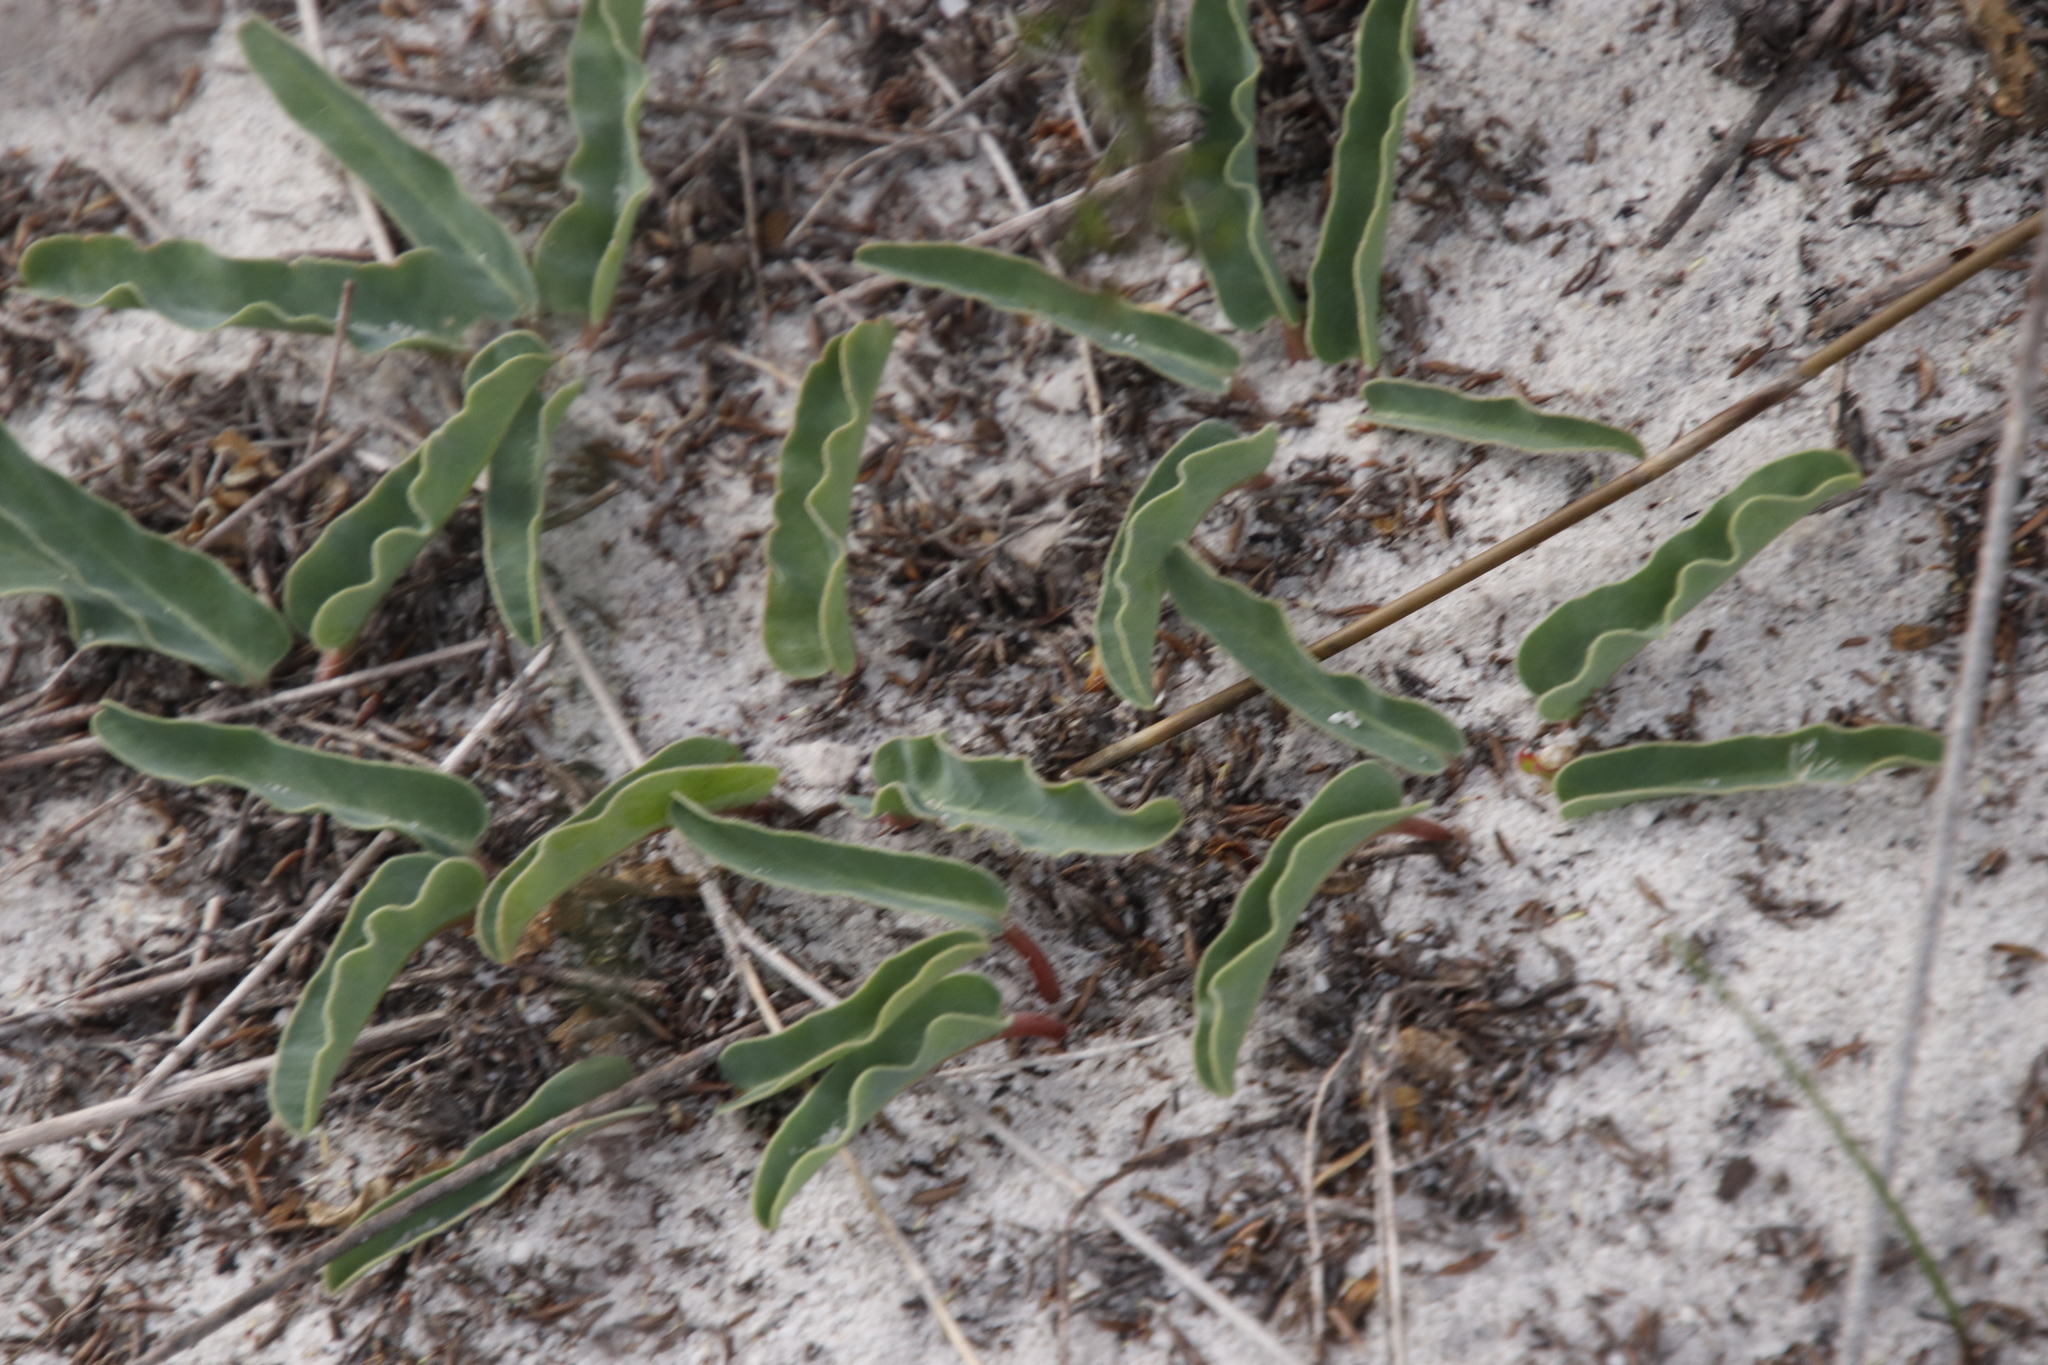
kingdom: Plantae
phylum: Tracheophyta
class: Magnoliopsida
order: Malpighiales
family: Euphorbiaceae
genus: Euphorbia
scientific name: Euphorbia tuberosa
